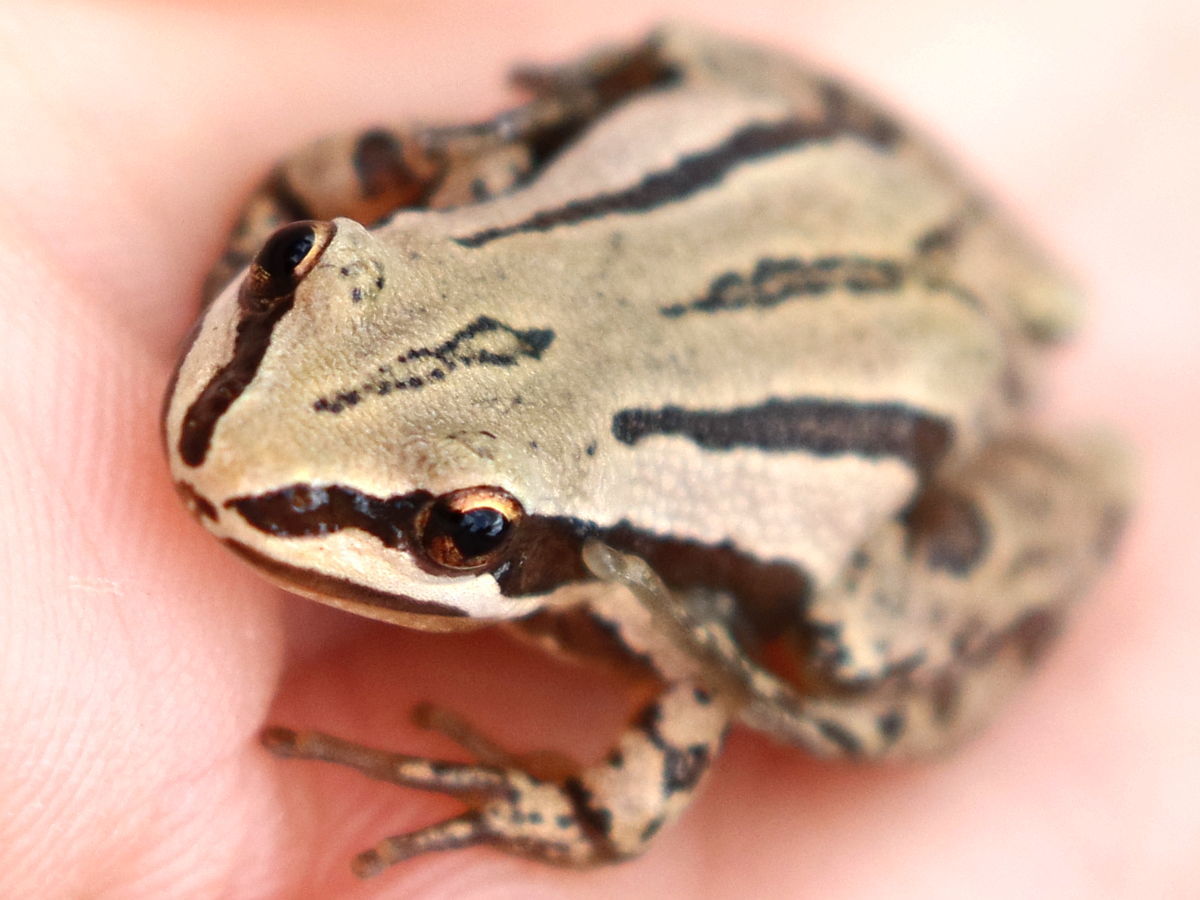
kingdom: Animalia
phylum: Chordata
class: Amphibia
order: Anura
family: Hylidae
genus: Pseudacris
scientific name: Pseudacris maculata
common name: Boreal chorus frog
